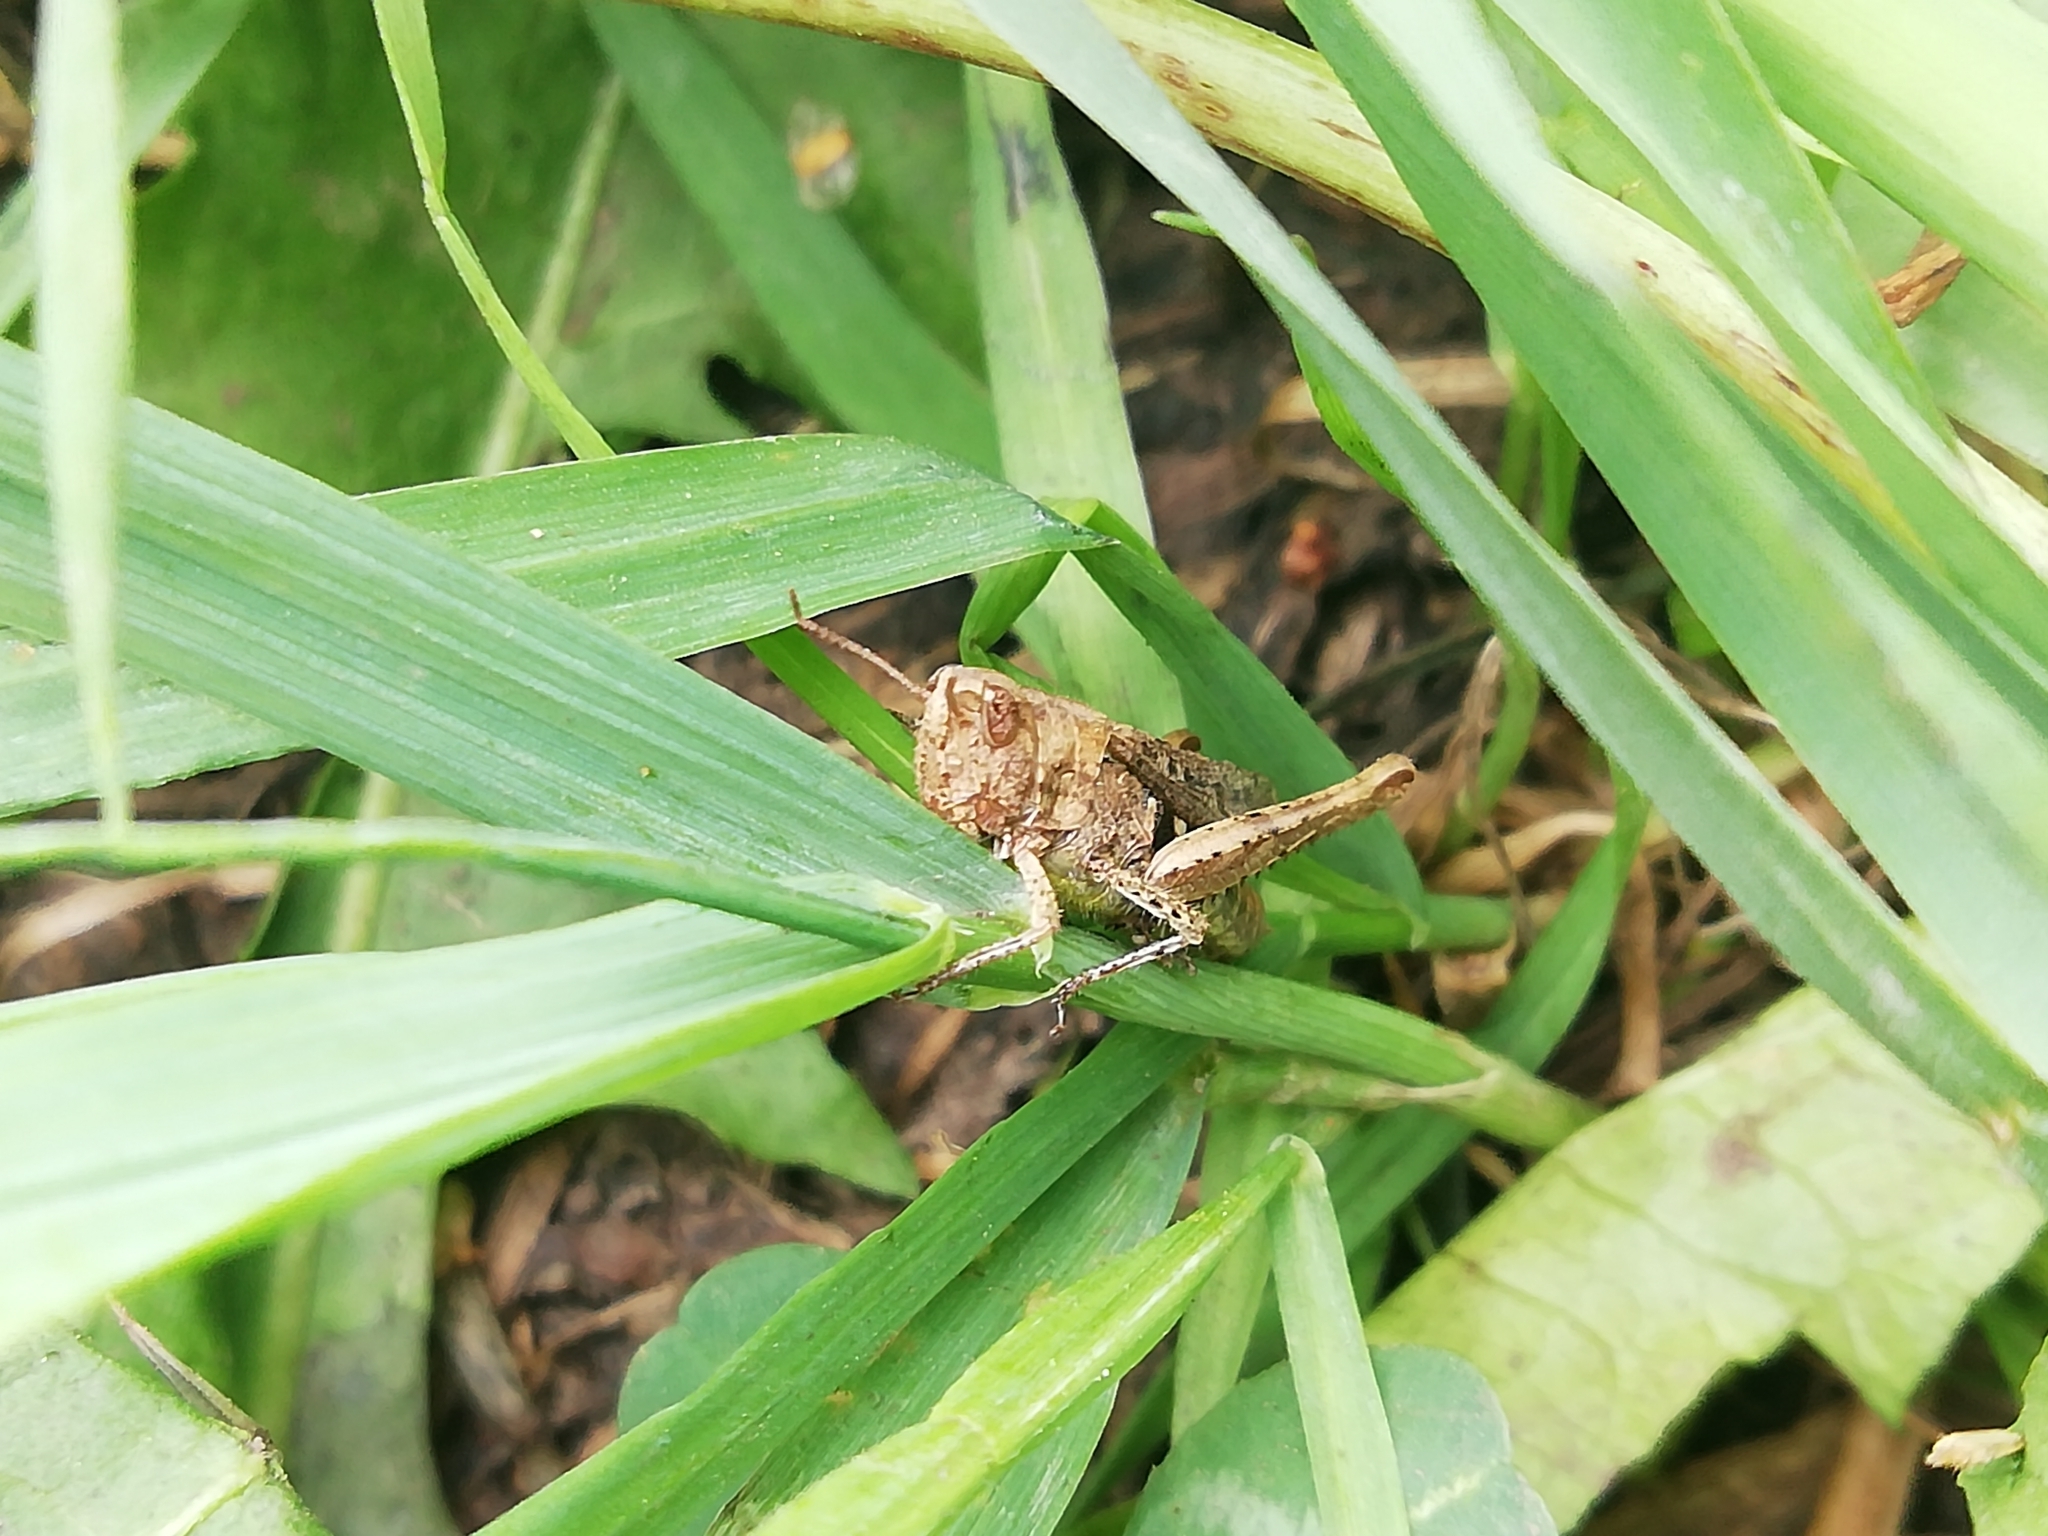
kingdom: Animalia
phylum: Arthropoda
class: Insecta
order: Orthoptera
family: Acrididae
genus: Chorthippus
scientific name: Chorthippus biguttulus
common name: Bow-winged grasshopper
